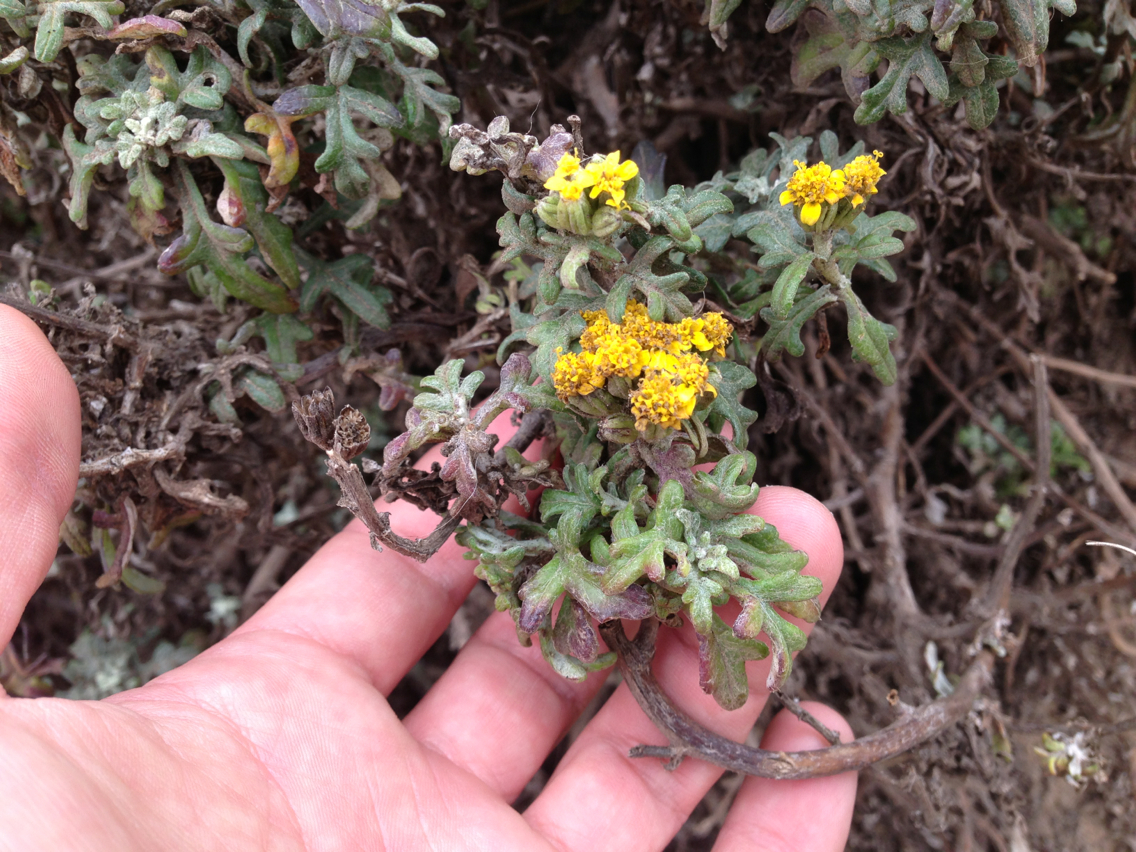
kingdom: Plantae
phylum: Tracheophyta
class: Magnoliopsida
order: Asterales
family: Asteraceae
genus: Eriophyllum
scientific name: Eriophyllum staechadifolium
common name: Lizardtail
